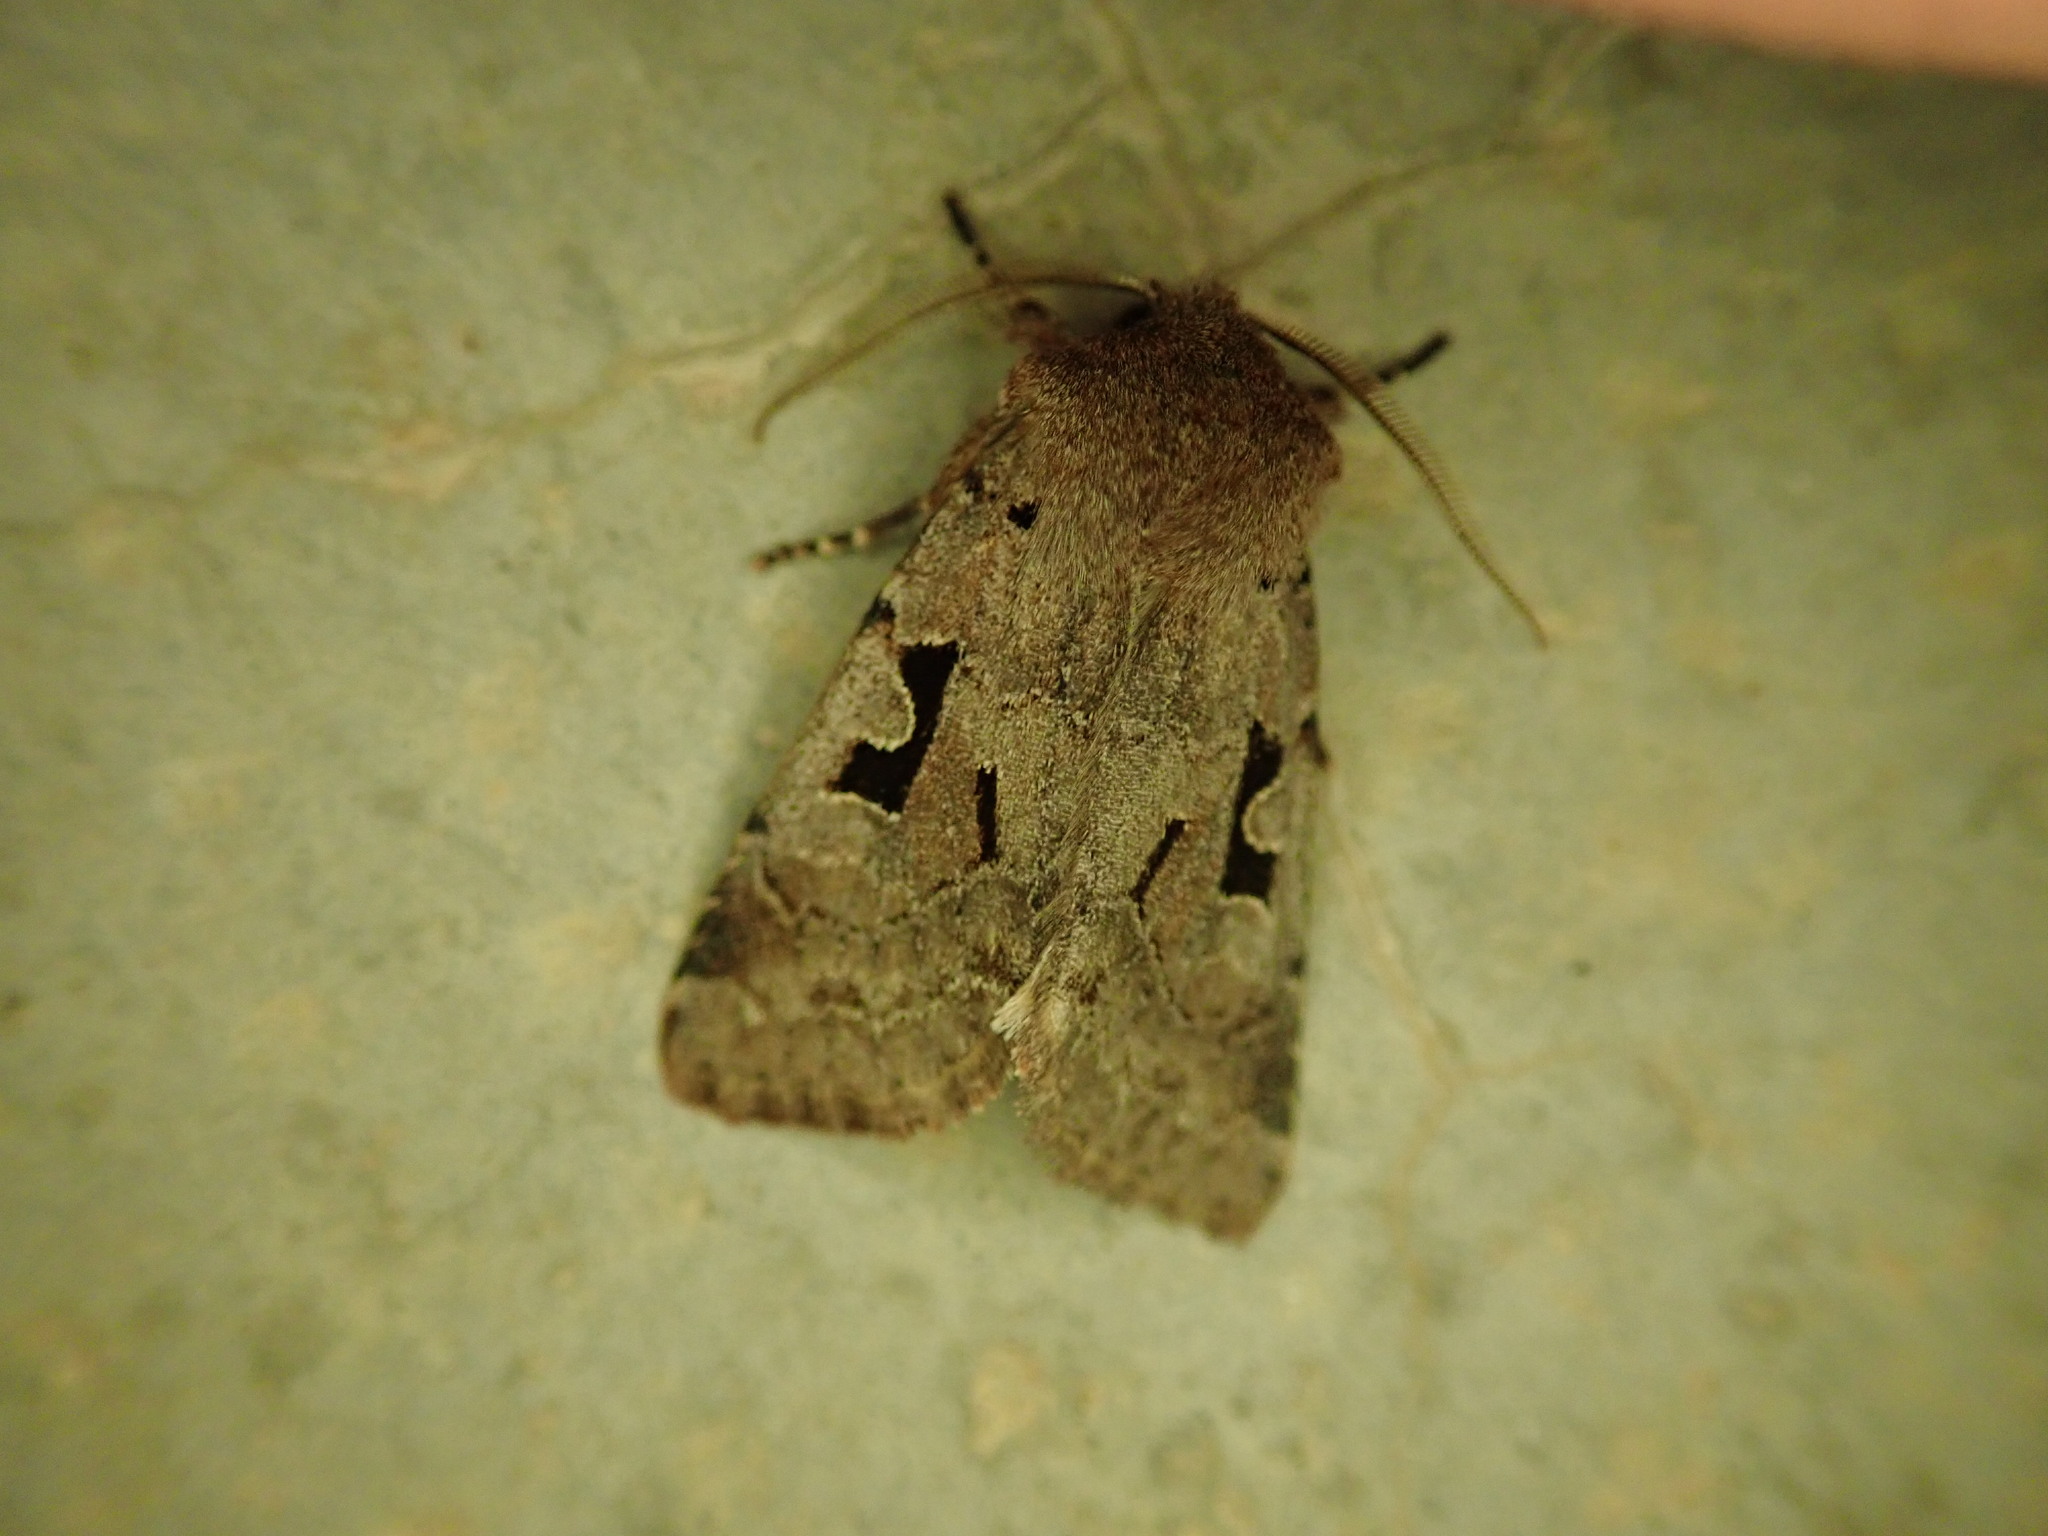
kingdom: Animalia
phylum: Arthropoda
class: Insecta
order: Lepidoptera
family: Noctuidae
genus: Orthosia
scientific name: Orthosia gothica
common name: Hebrew character
